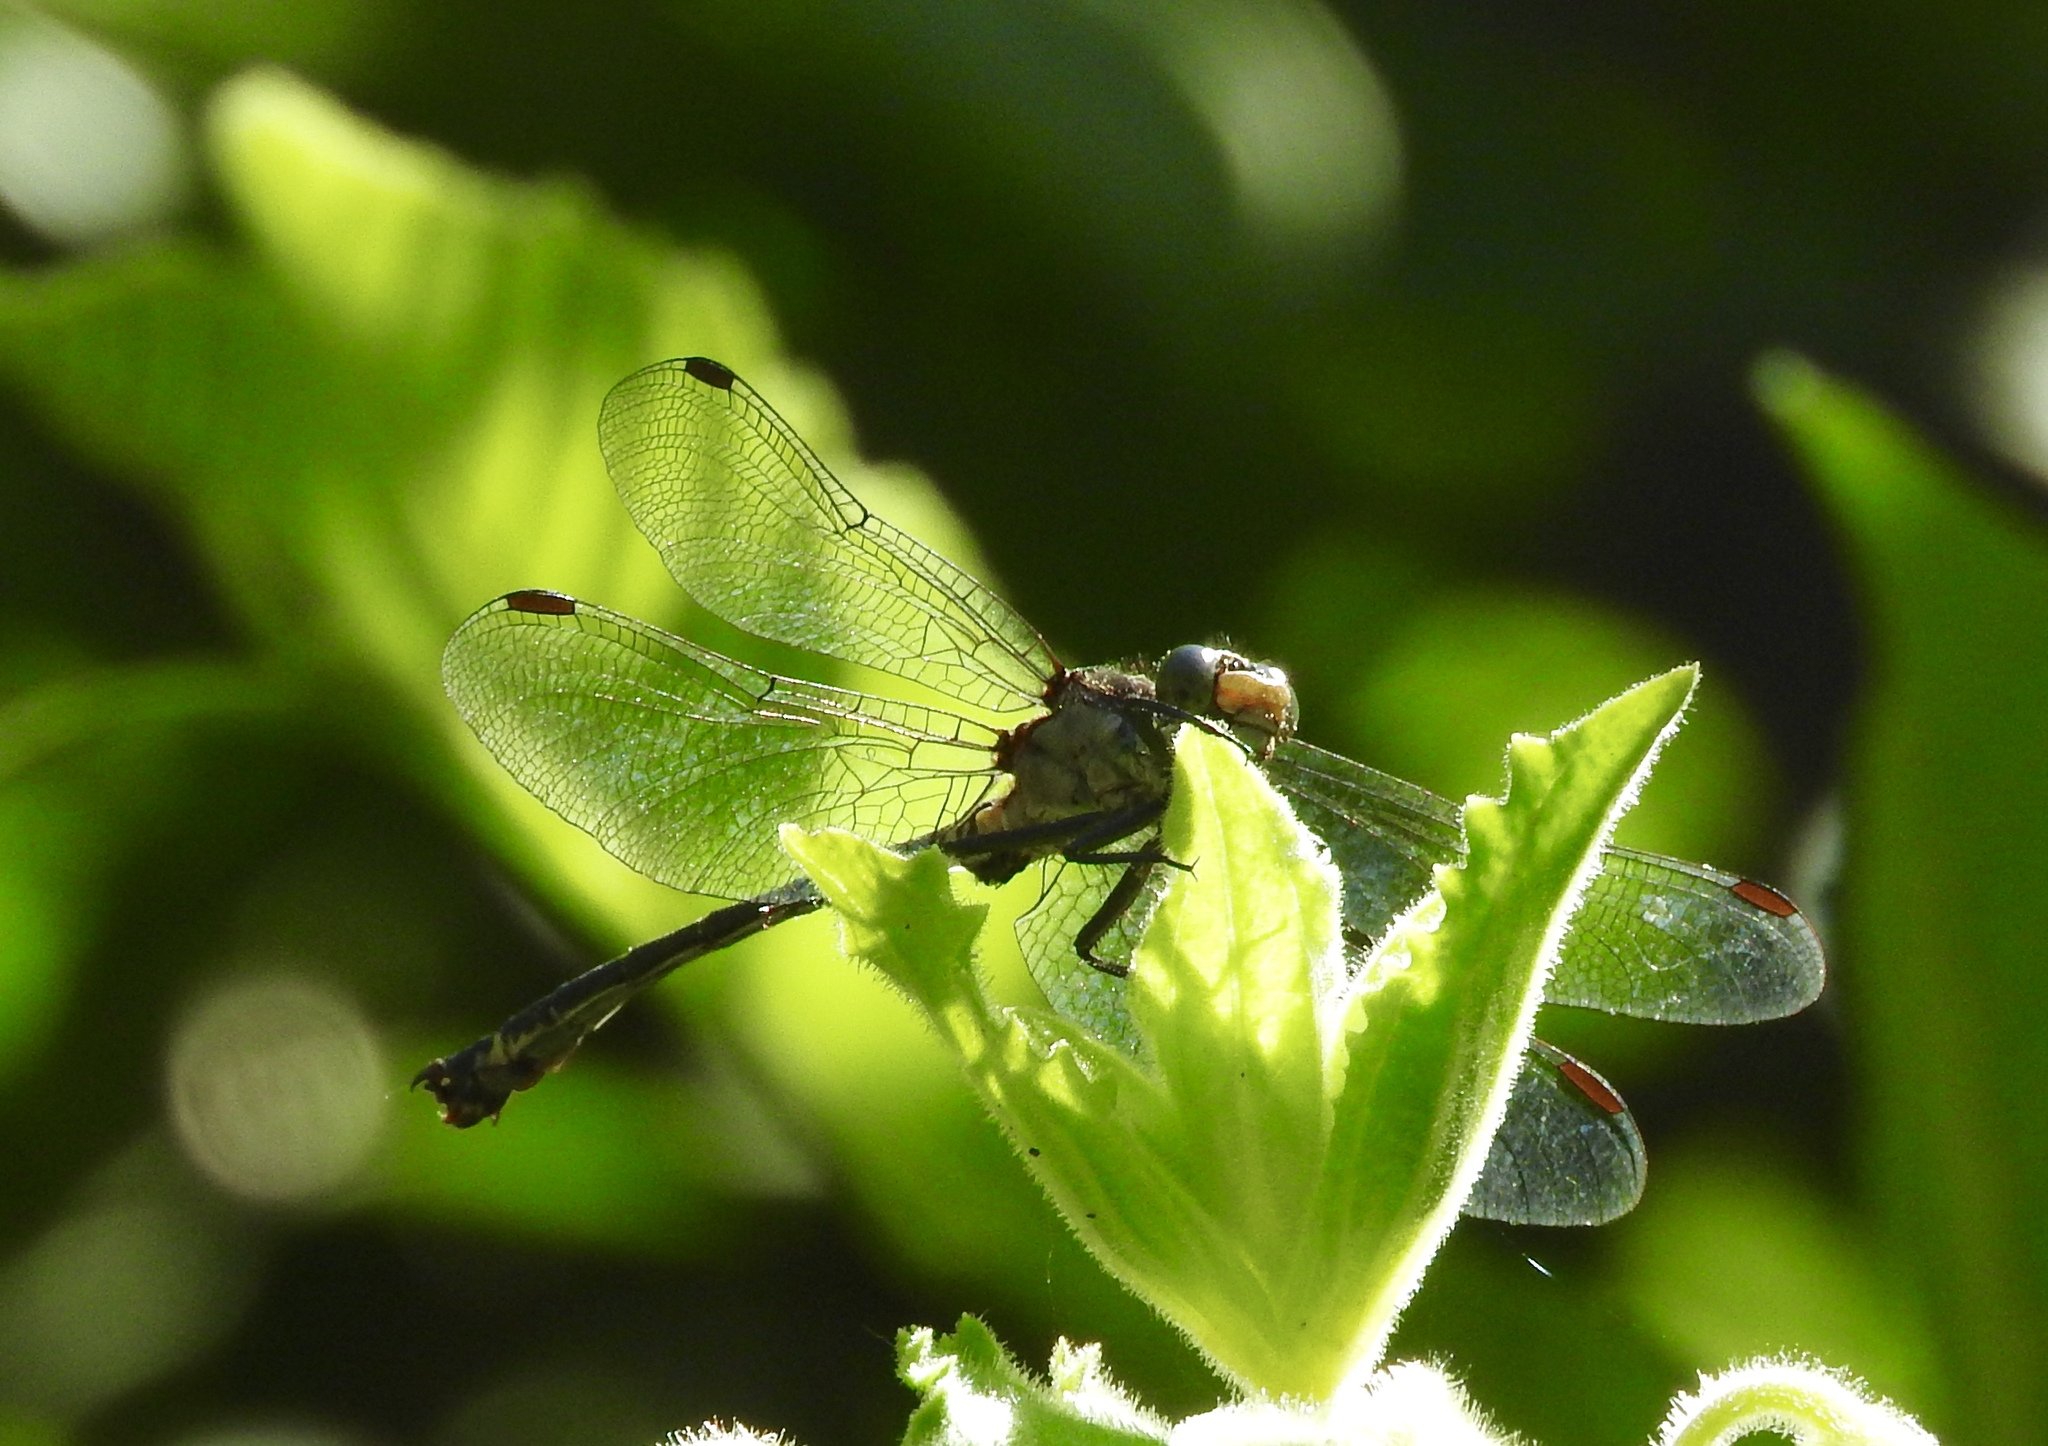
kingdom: Animalia
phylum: Arthropoda
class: Insecta
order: Odonata
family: Gomphidae
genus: Octogomphus
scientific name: Octogomphus specularis
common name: Grappletail
